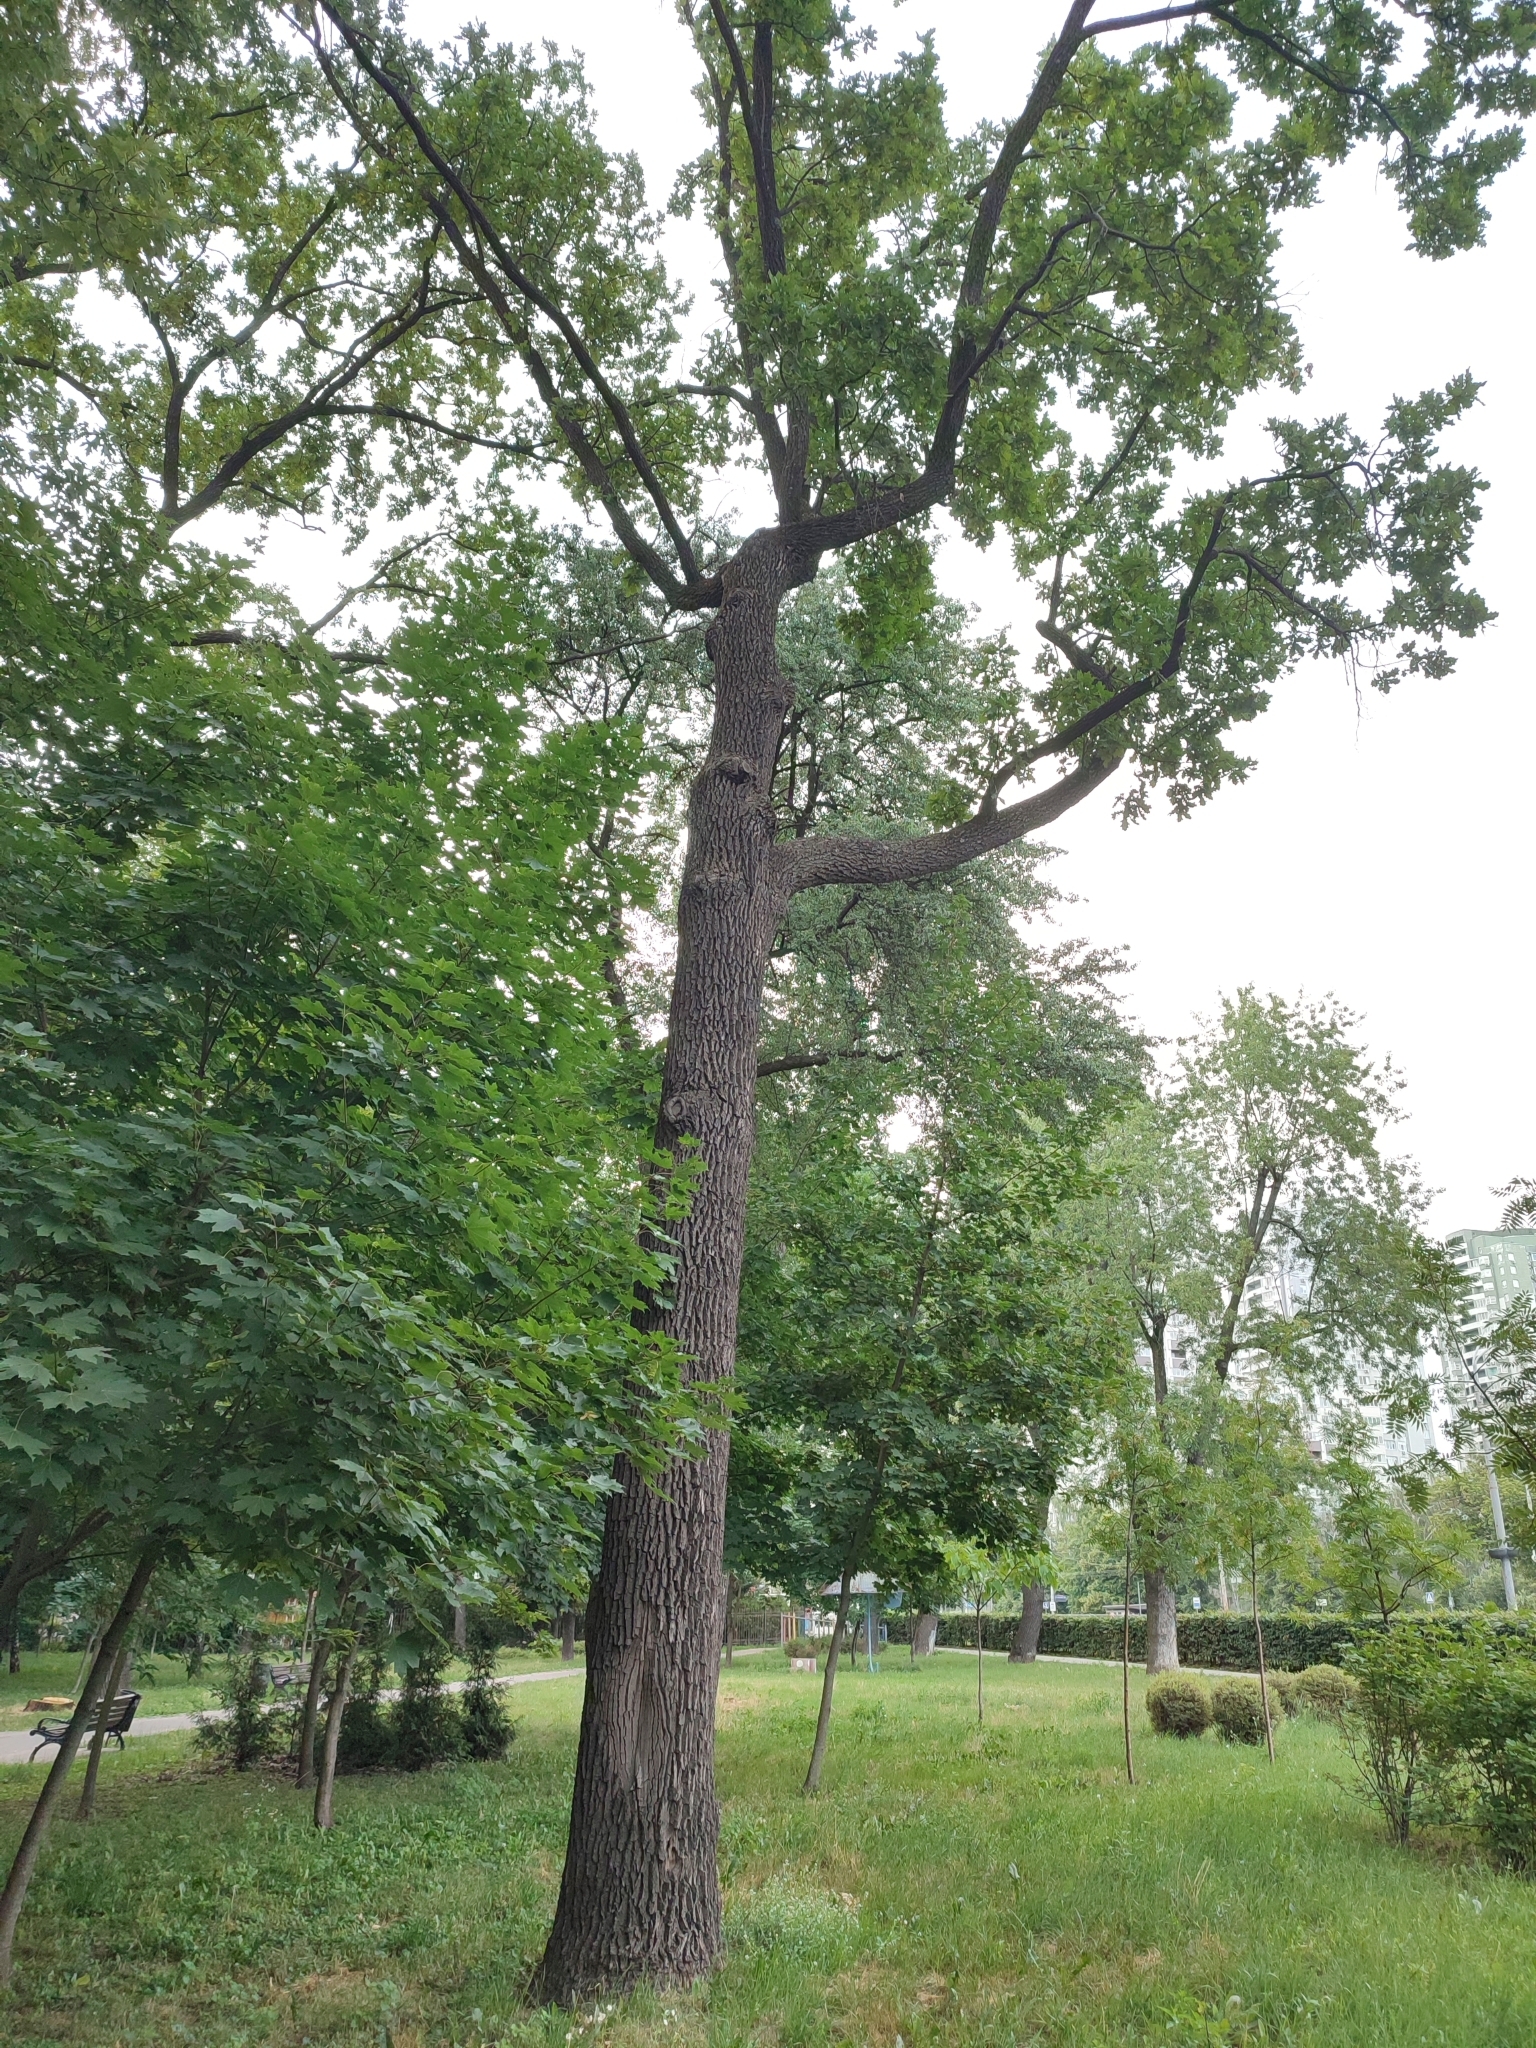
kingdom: Plantae
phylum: Tracheophyta
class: Magnoliopsida
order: Fagales
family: Fagaceae
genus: Quercus
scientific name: Quercus robur
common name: Pedunculate oak
